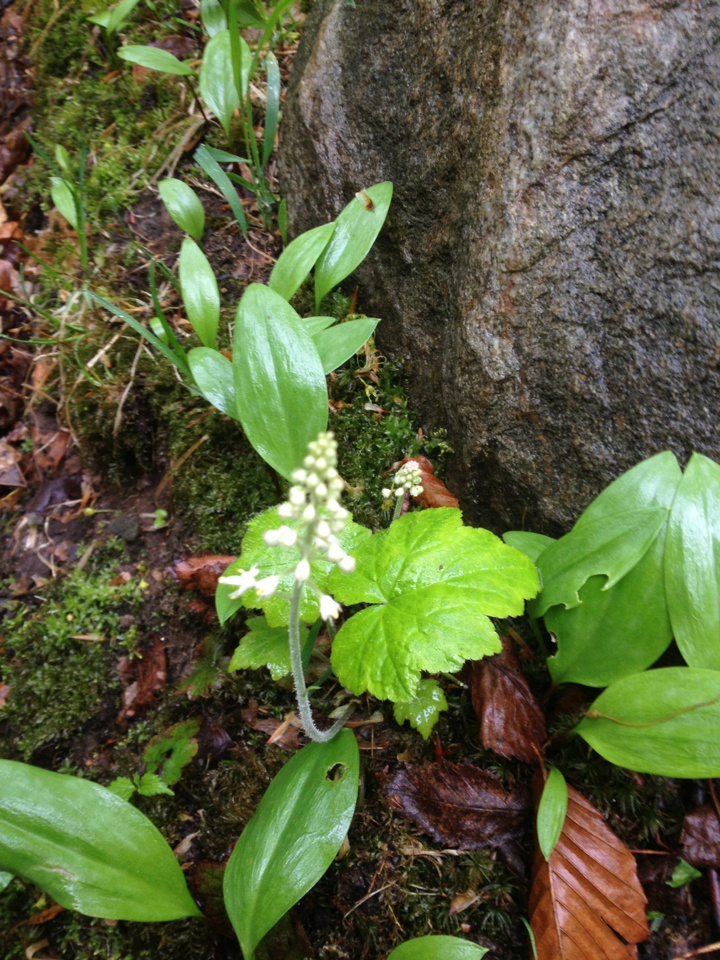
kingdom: Plantae
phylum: Tracheophyta
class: Magnoliopsida
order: Saxifragales
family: Saxifragaceae
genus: Tiarella
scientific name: Tiarella stolonifera
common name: Stoloniferous foamflower
